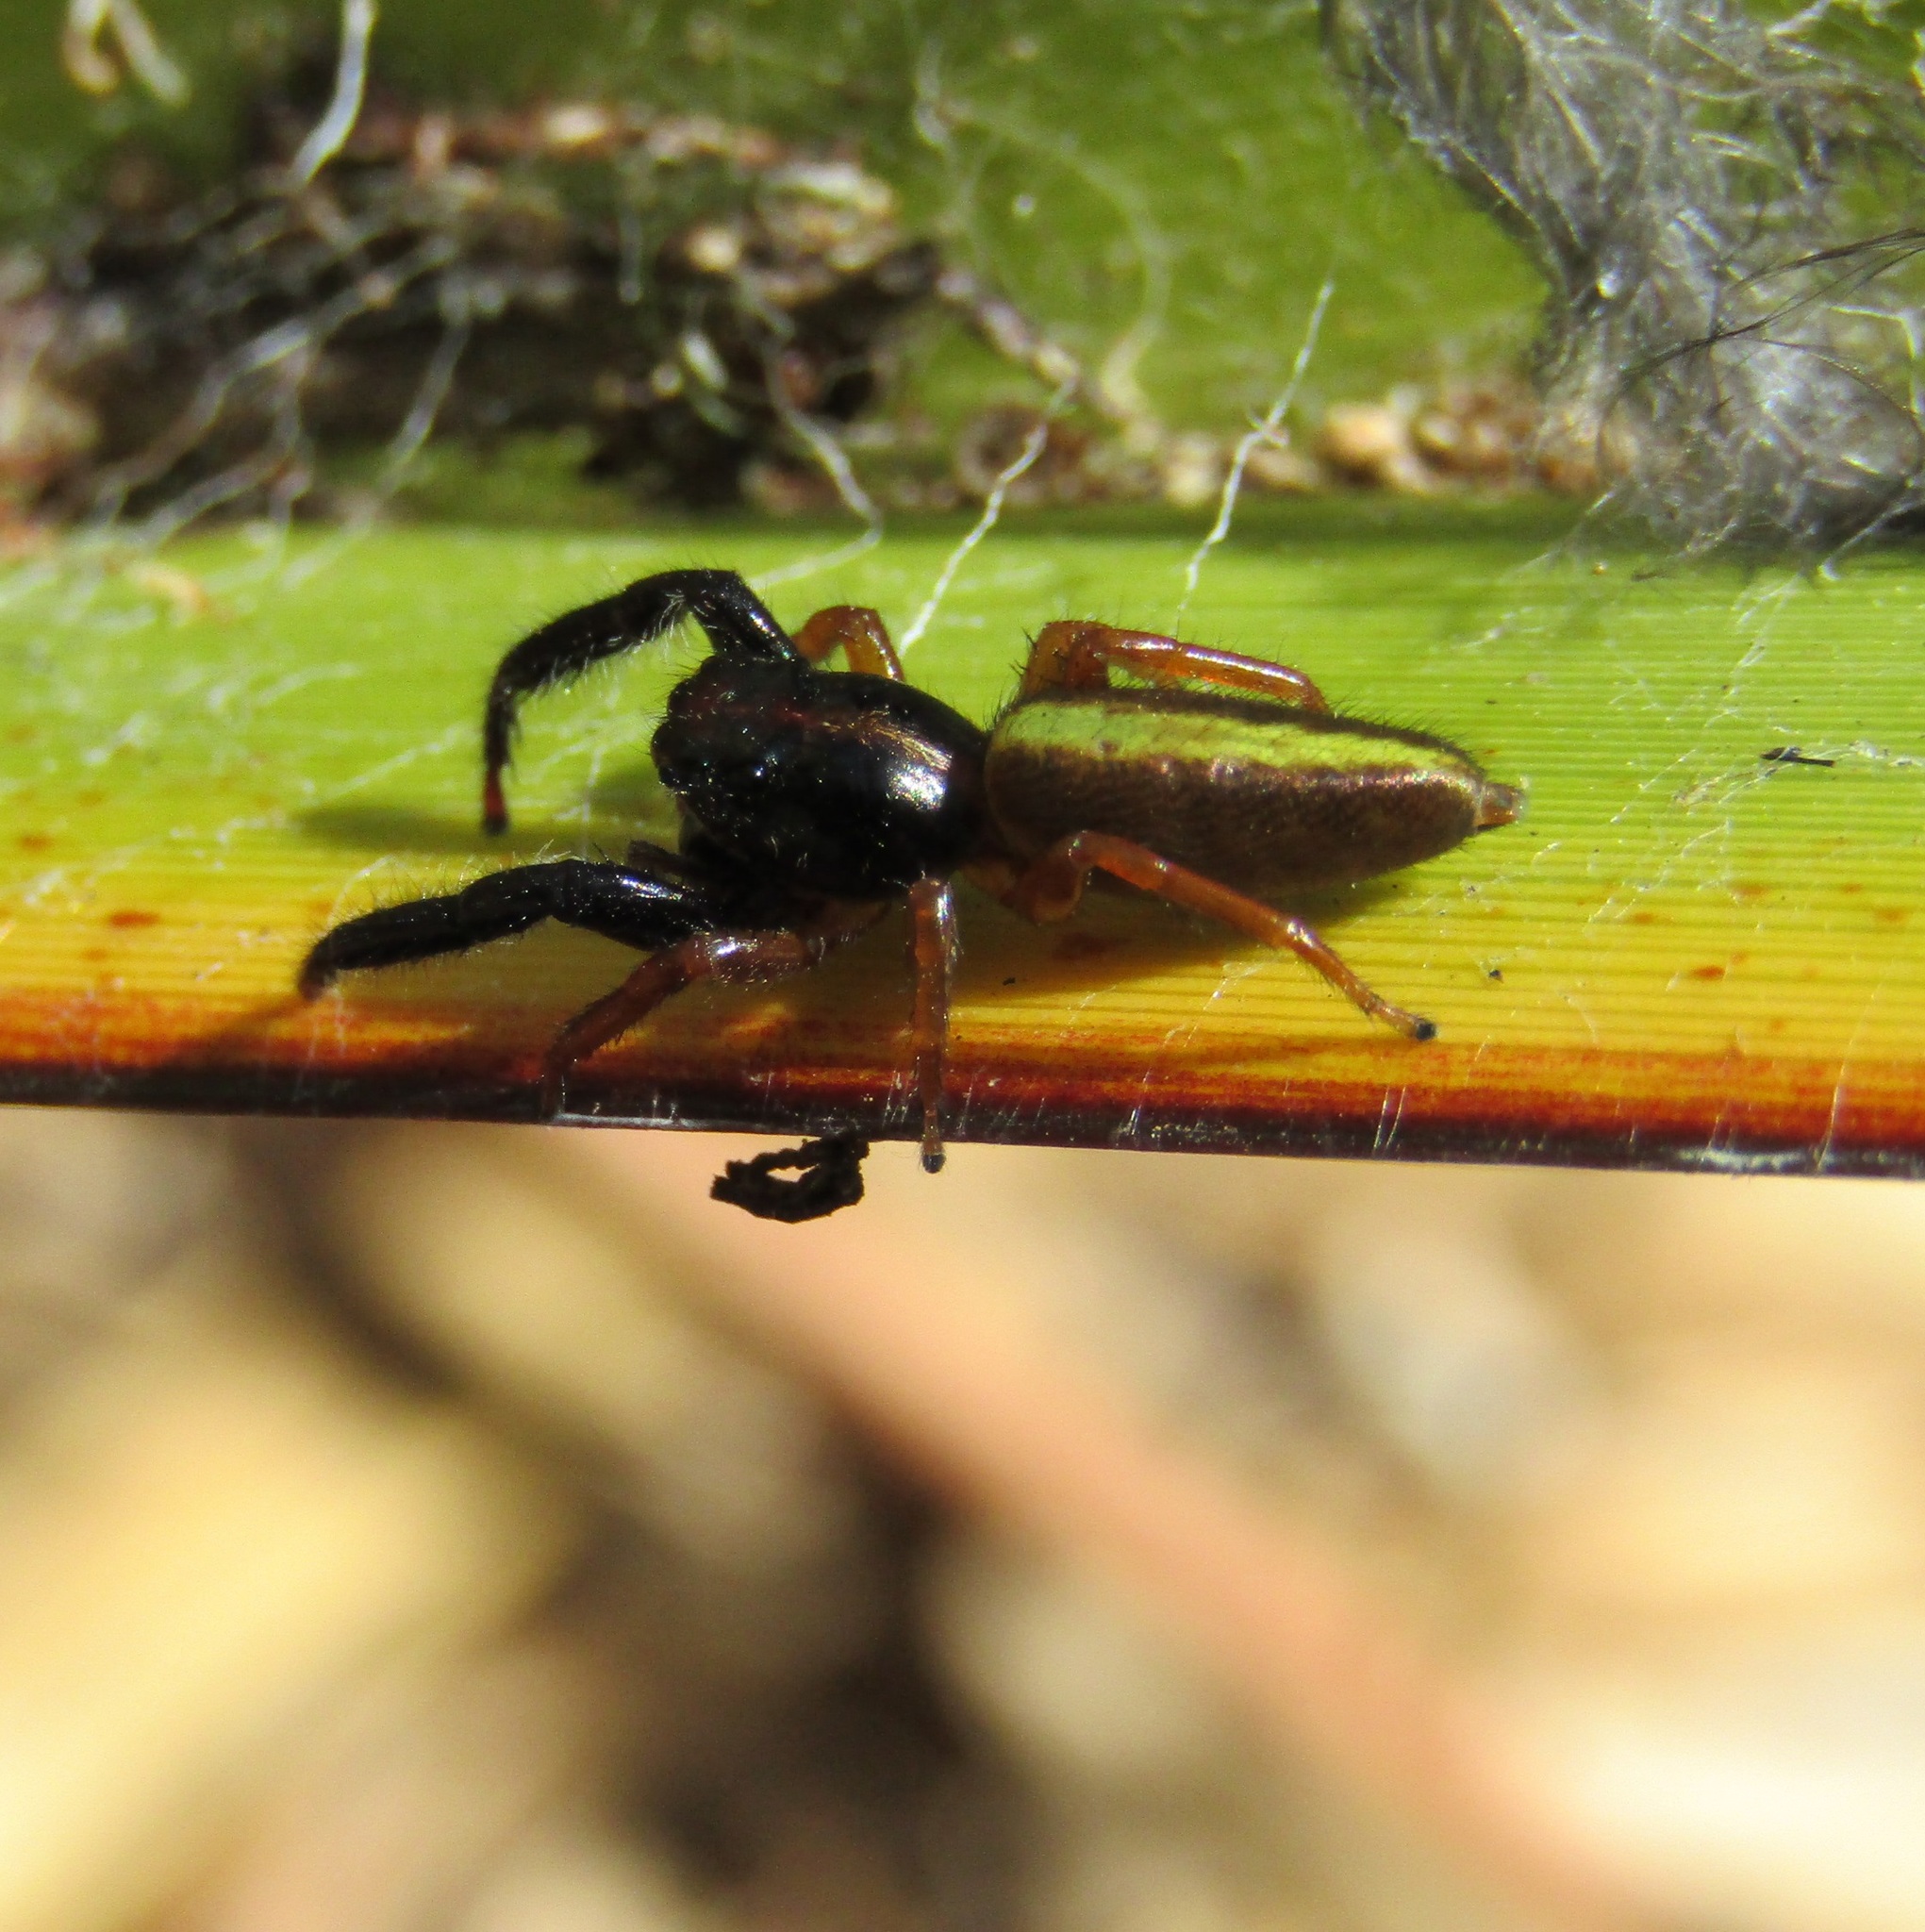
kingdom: Animalia
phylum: Arthropoda
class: Arachnida
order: Araneae
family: Salticidae
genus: Trite
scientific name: Trite planiceps
